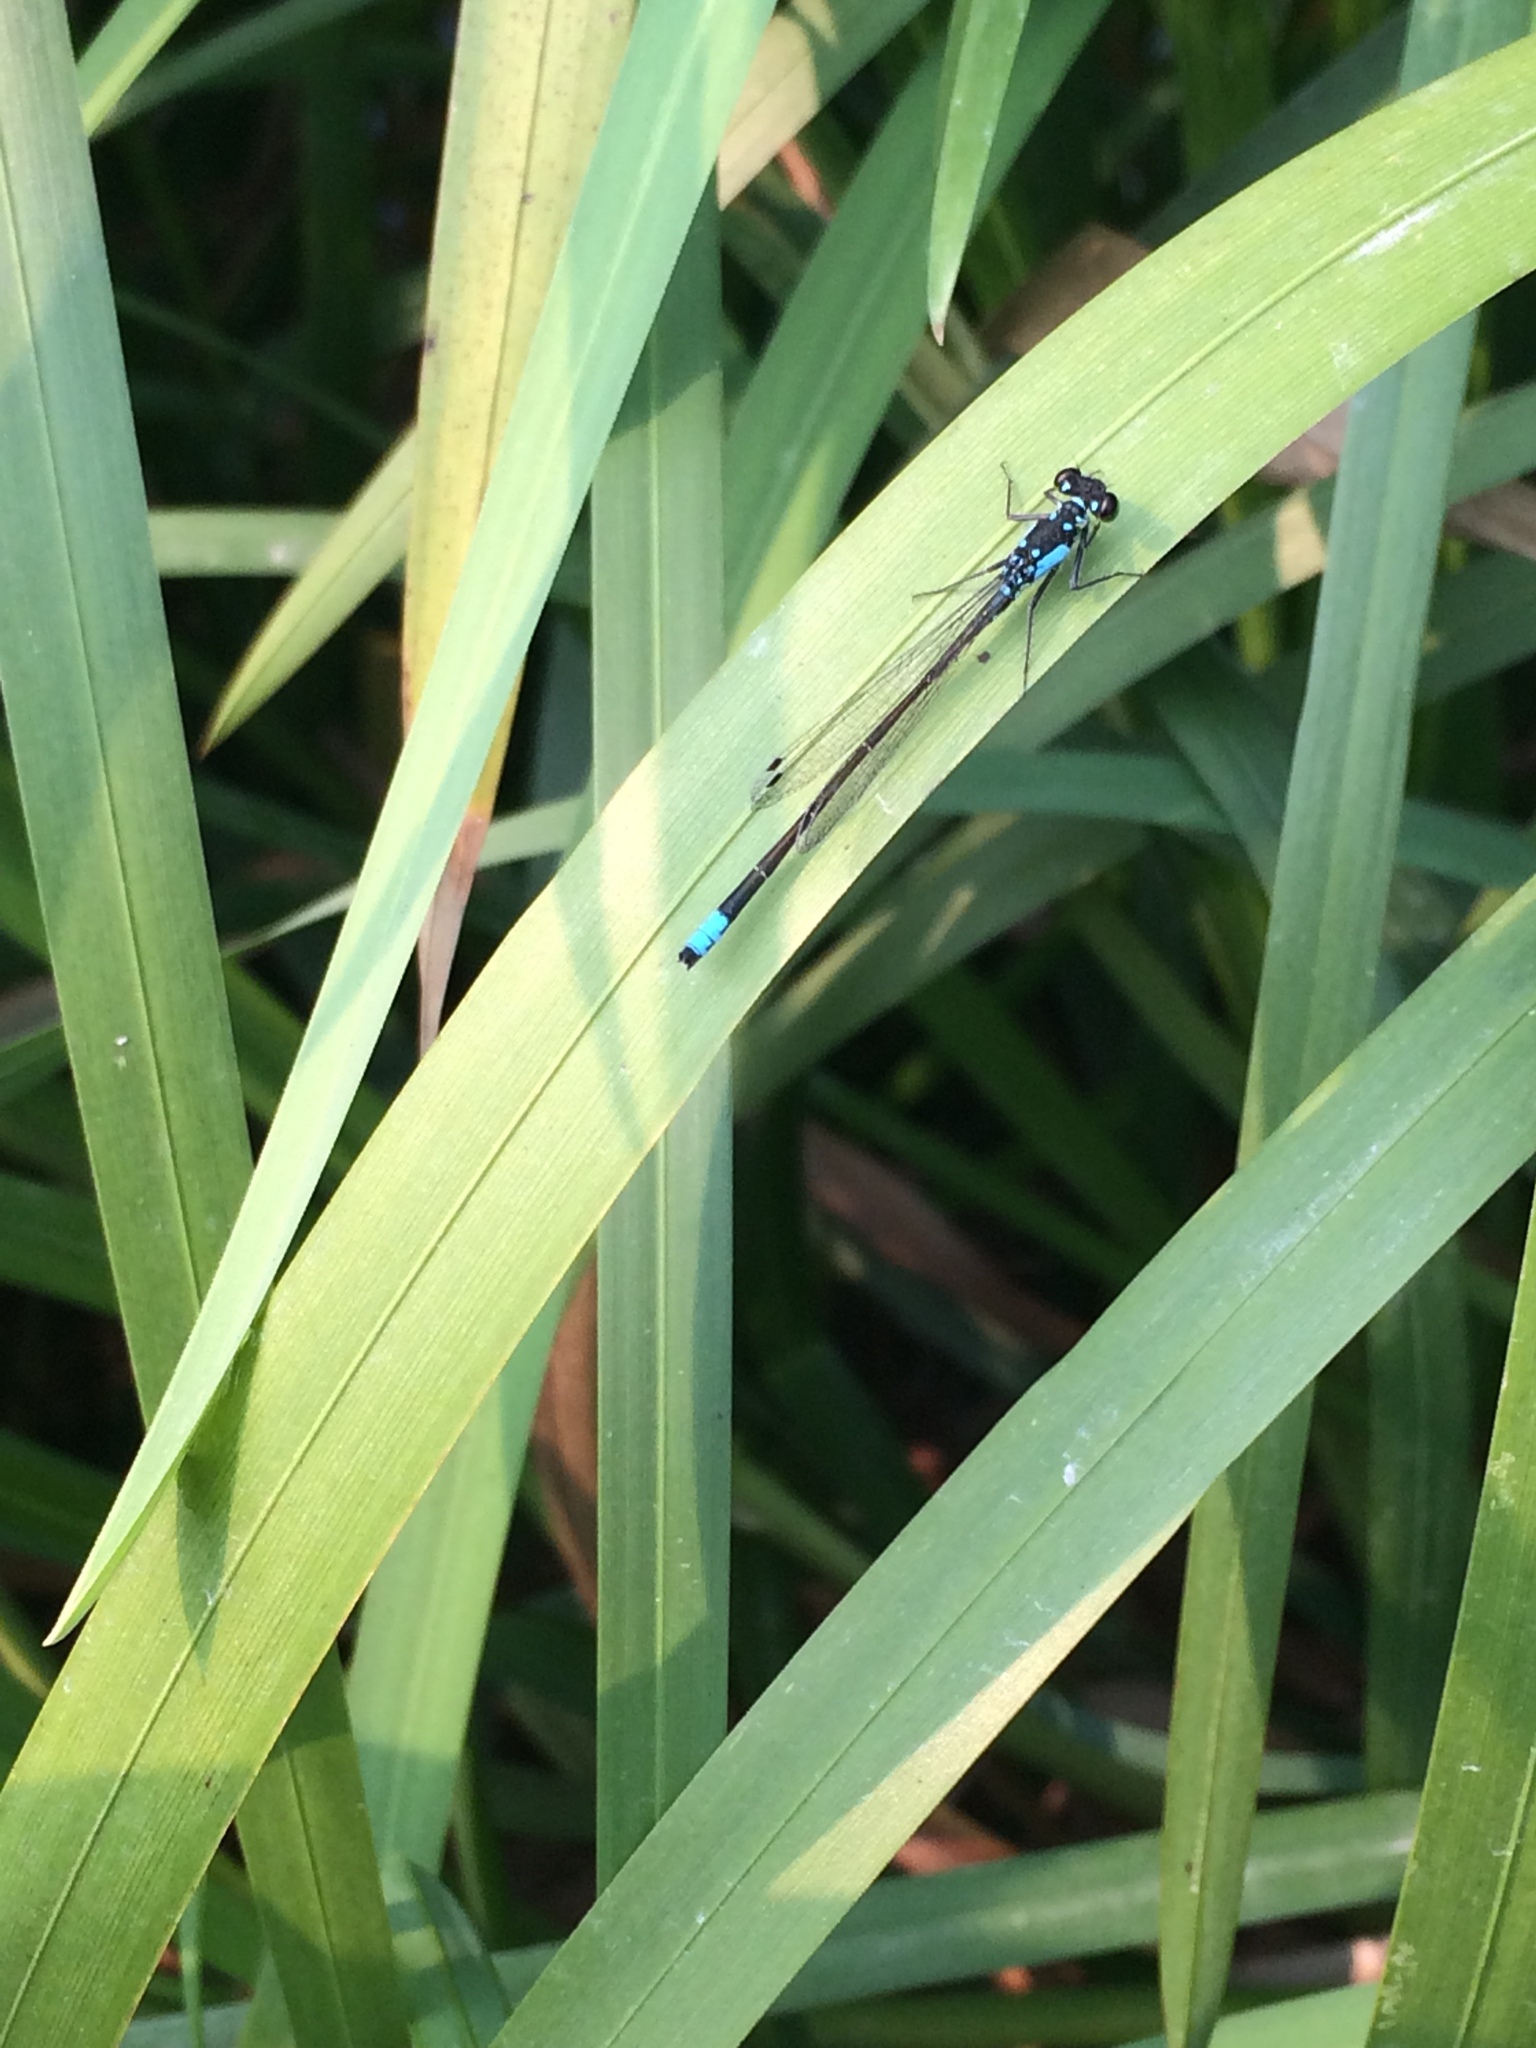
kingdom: Animalia
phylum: Arthropoda
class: Insecta
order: Odonata
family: Coenagrionidae
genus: Ischnura
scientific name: Ischnura cervula
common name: Pacific forktail
